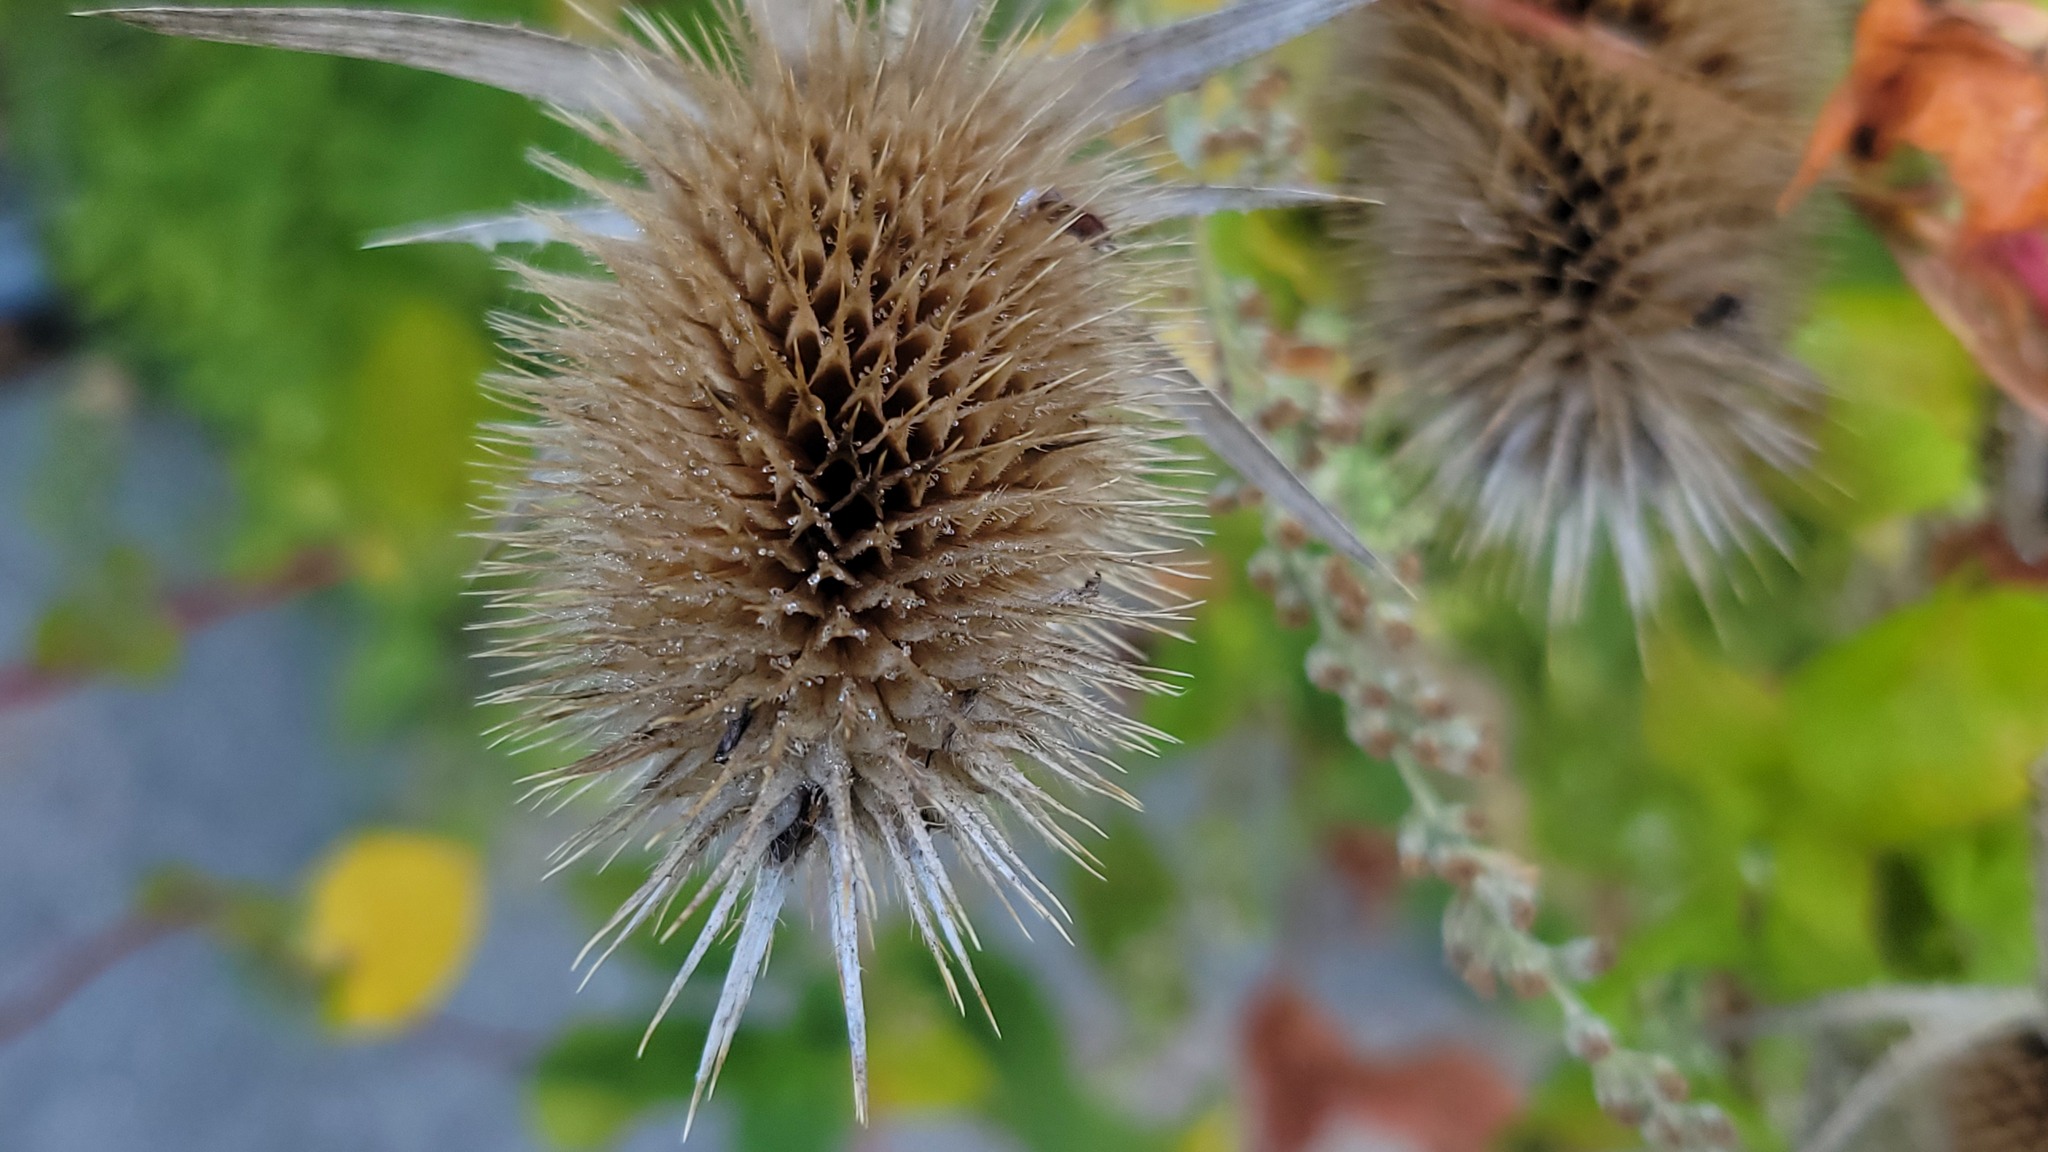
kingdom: Plantae
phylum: Tracheophyta
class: Magnoliopsida
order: Dipsacales
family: Caprifoliaceae
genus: Dipsacus
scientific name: Dipsacus laciniatus
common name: Cut-leaved teasel
